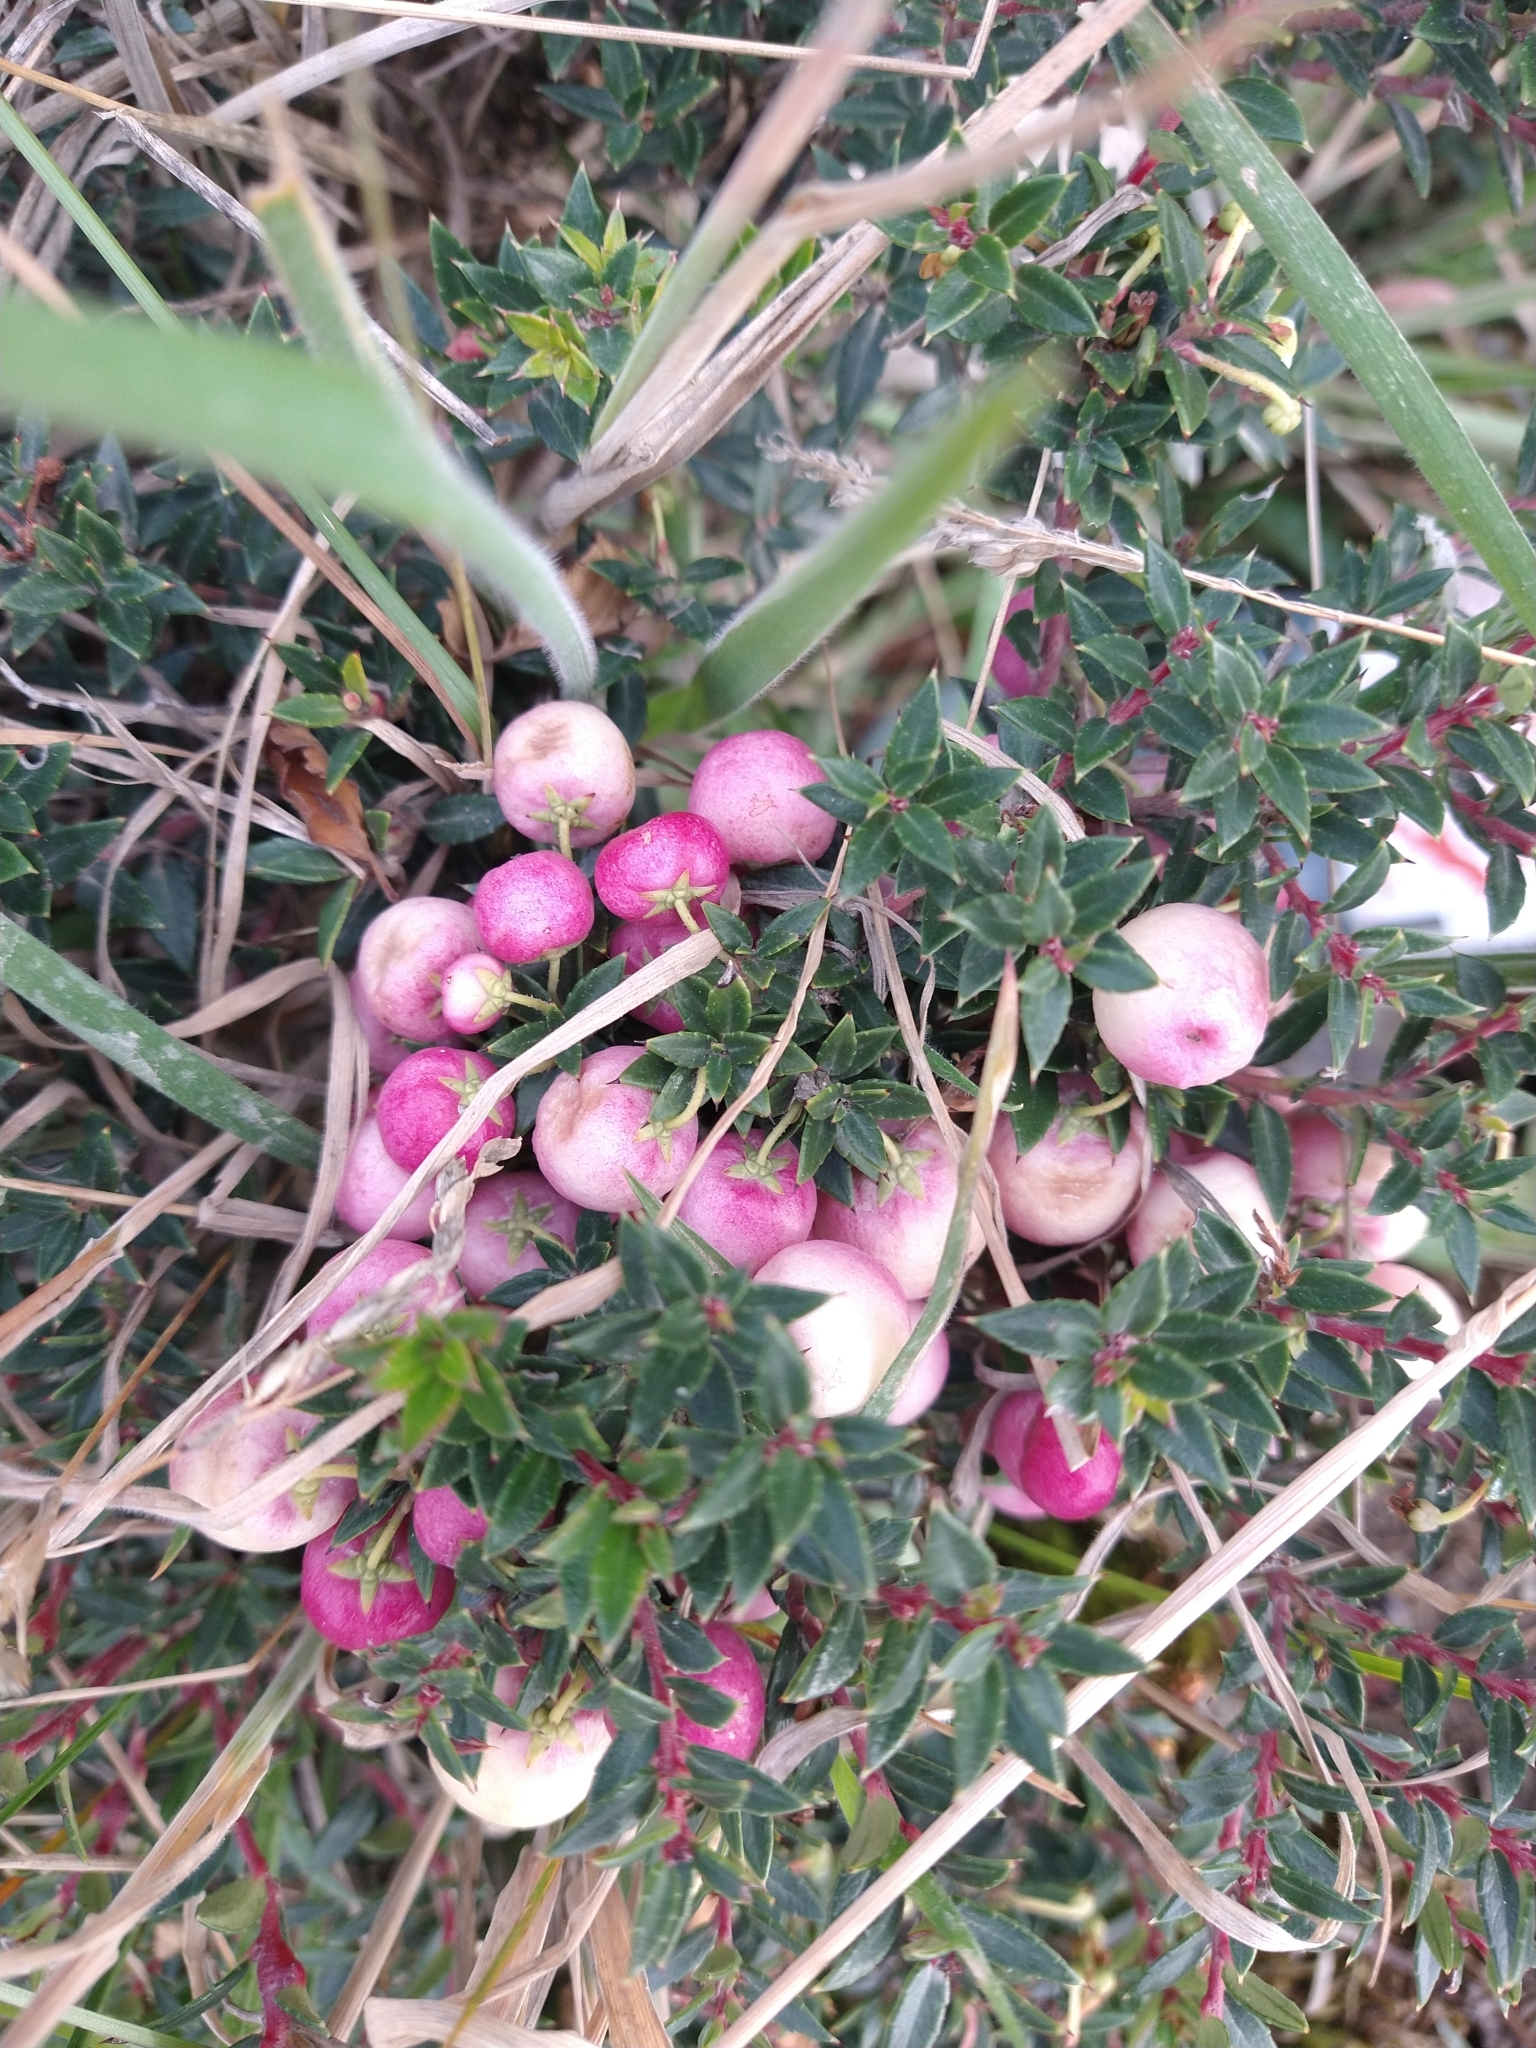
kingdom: Plantae
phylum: Tracheophyta
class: Magnoliopsida
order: Ericales
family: Ericaceae
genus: Gaultheria
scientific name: Gaultheria mucronata
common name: Prickly heath
